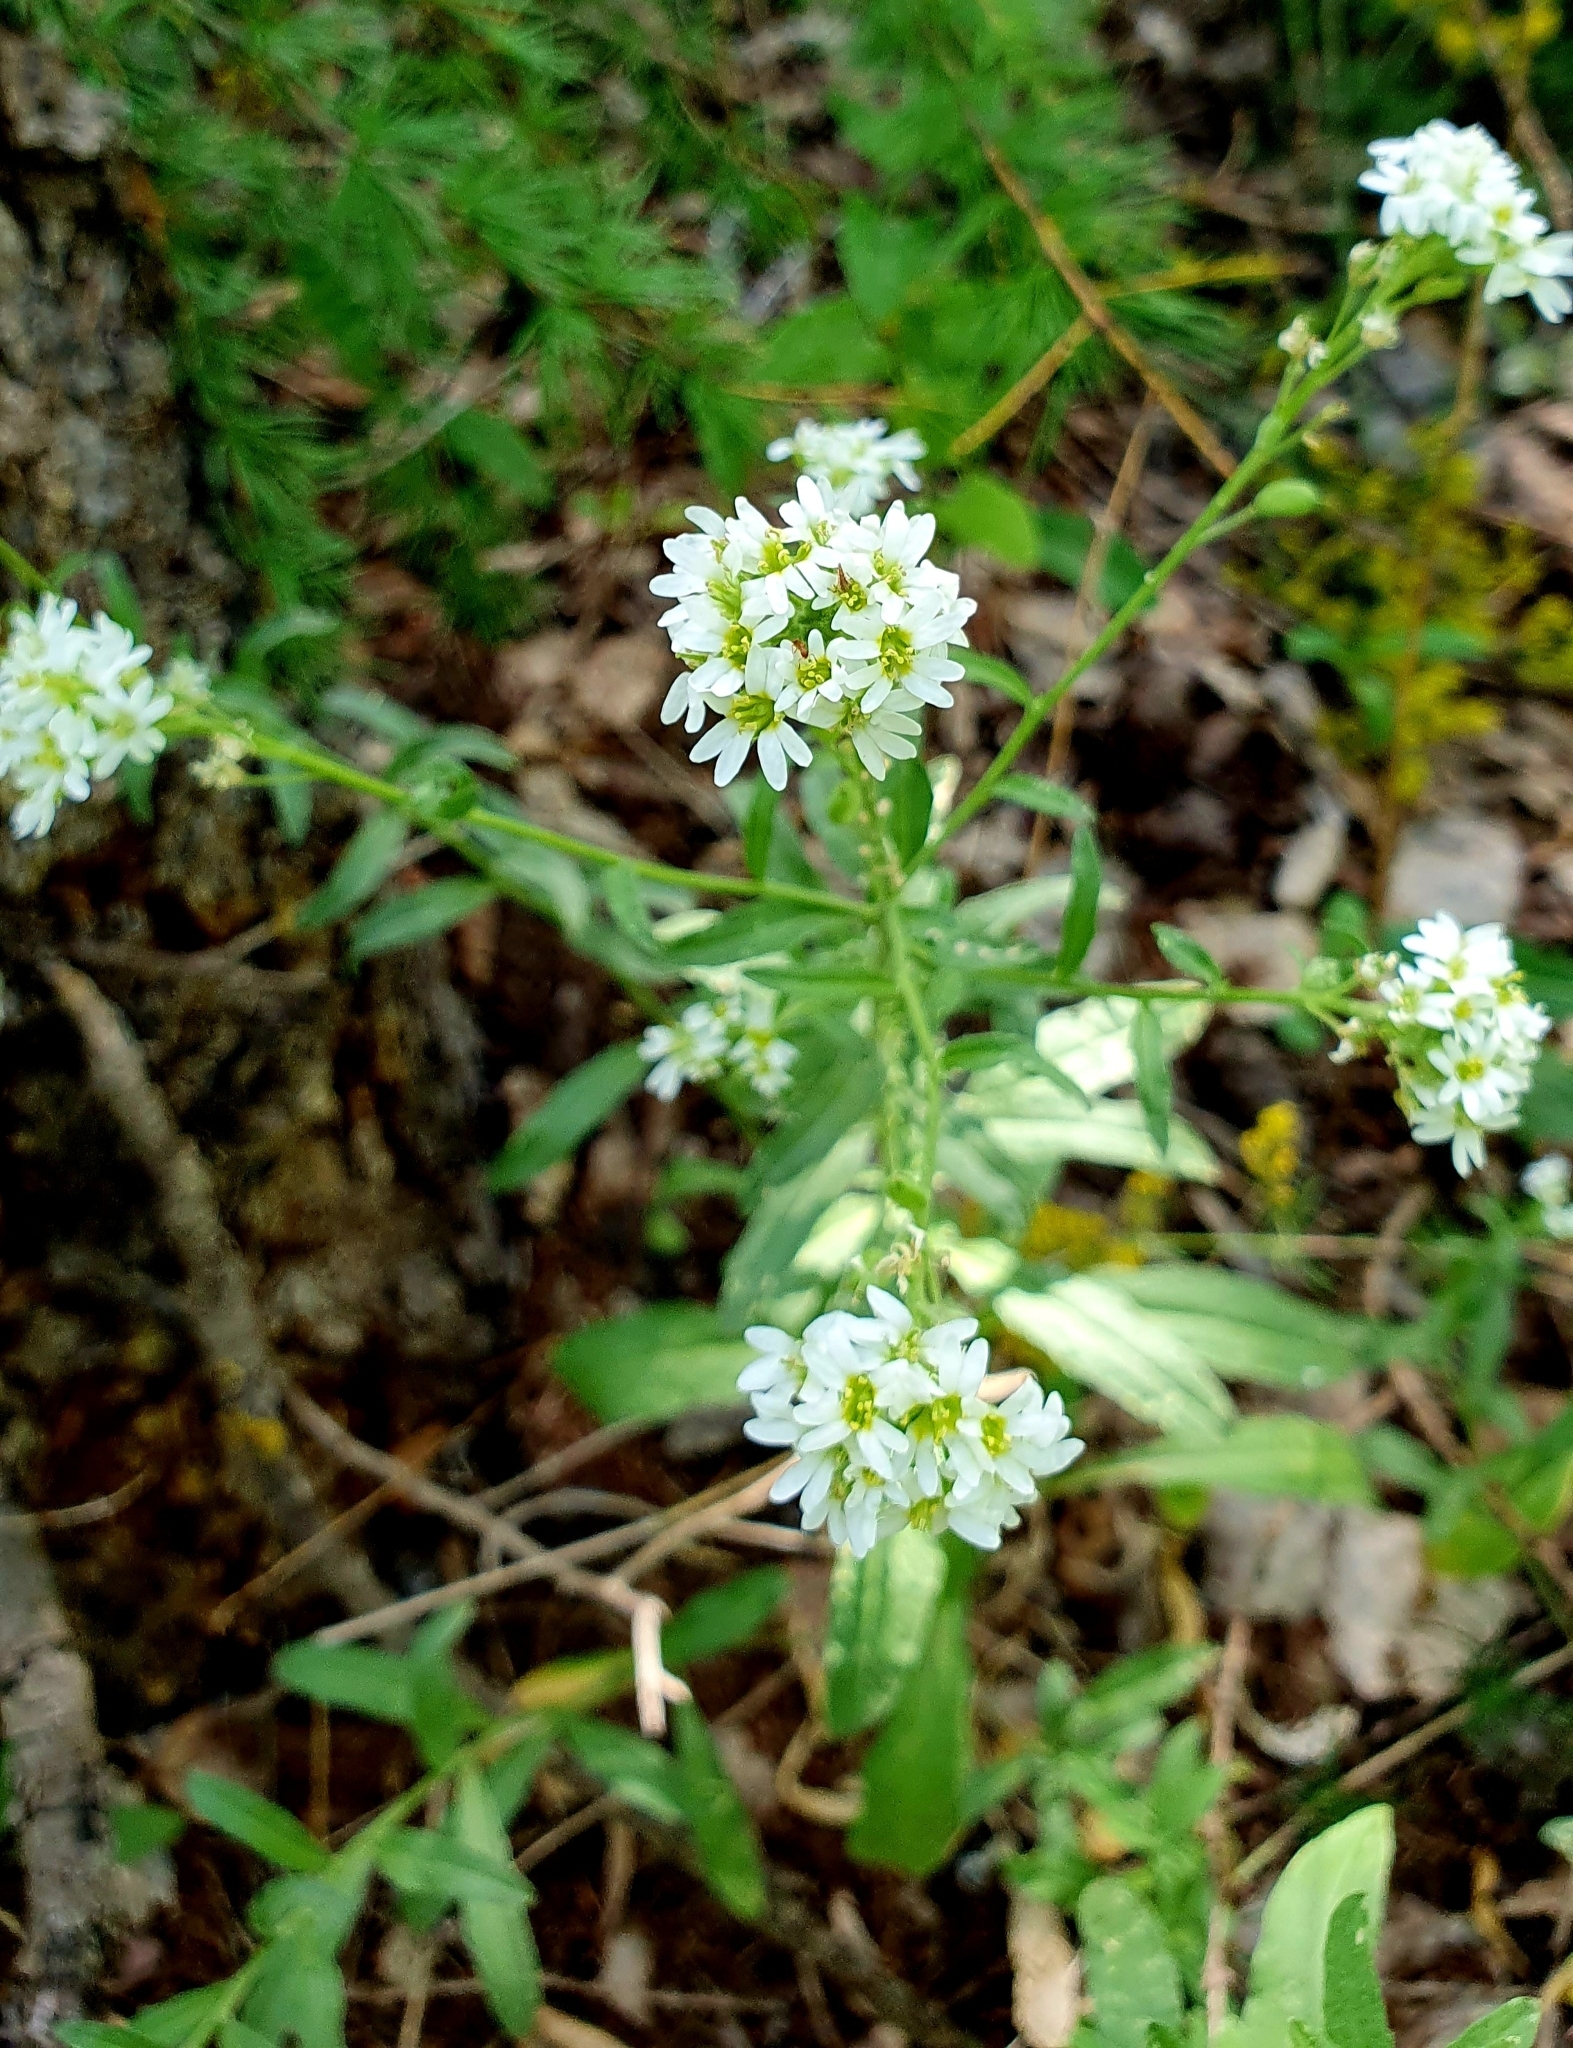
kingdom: Plantae
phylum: Tracheophyta
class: Magnoliopsida
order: Brassicales
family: Brassicaceae
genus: Berteroa
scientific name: Berteroa incana
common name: Hoary alison
